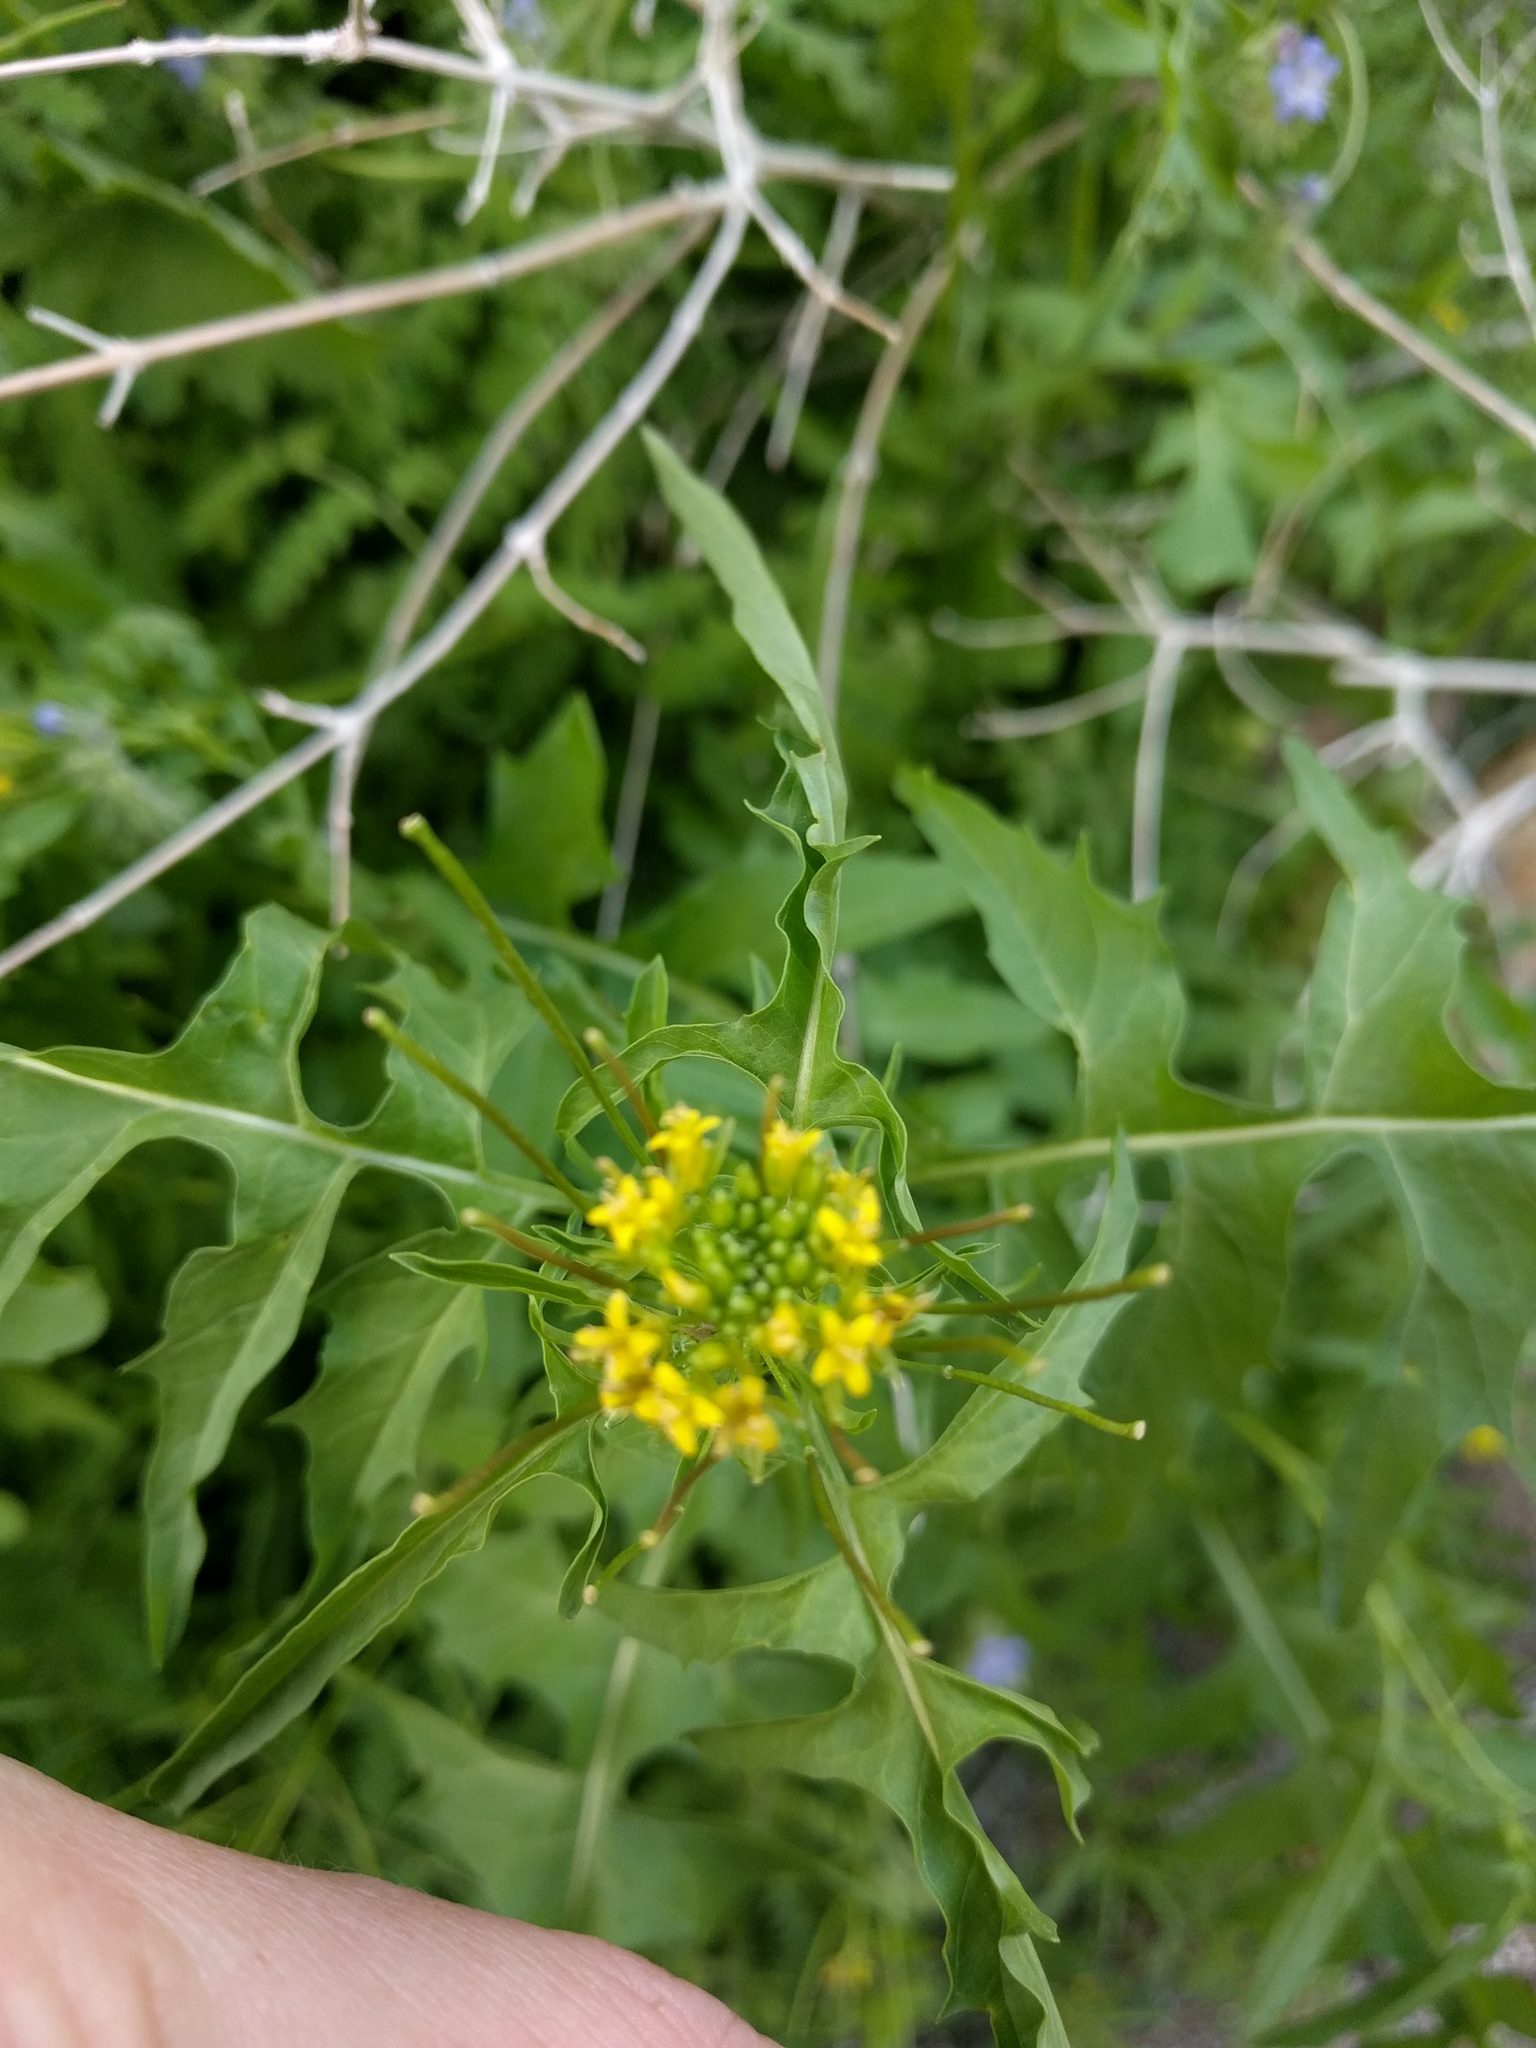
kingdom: Plantae
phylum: Tracheophyta
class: Magnoliopsida
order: Brassicales
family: Brassicaceae
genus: Sisymbrium
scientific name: Sisymbrium irio
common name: London rocket
